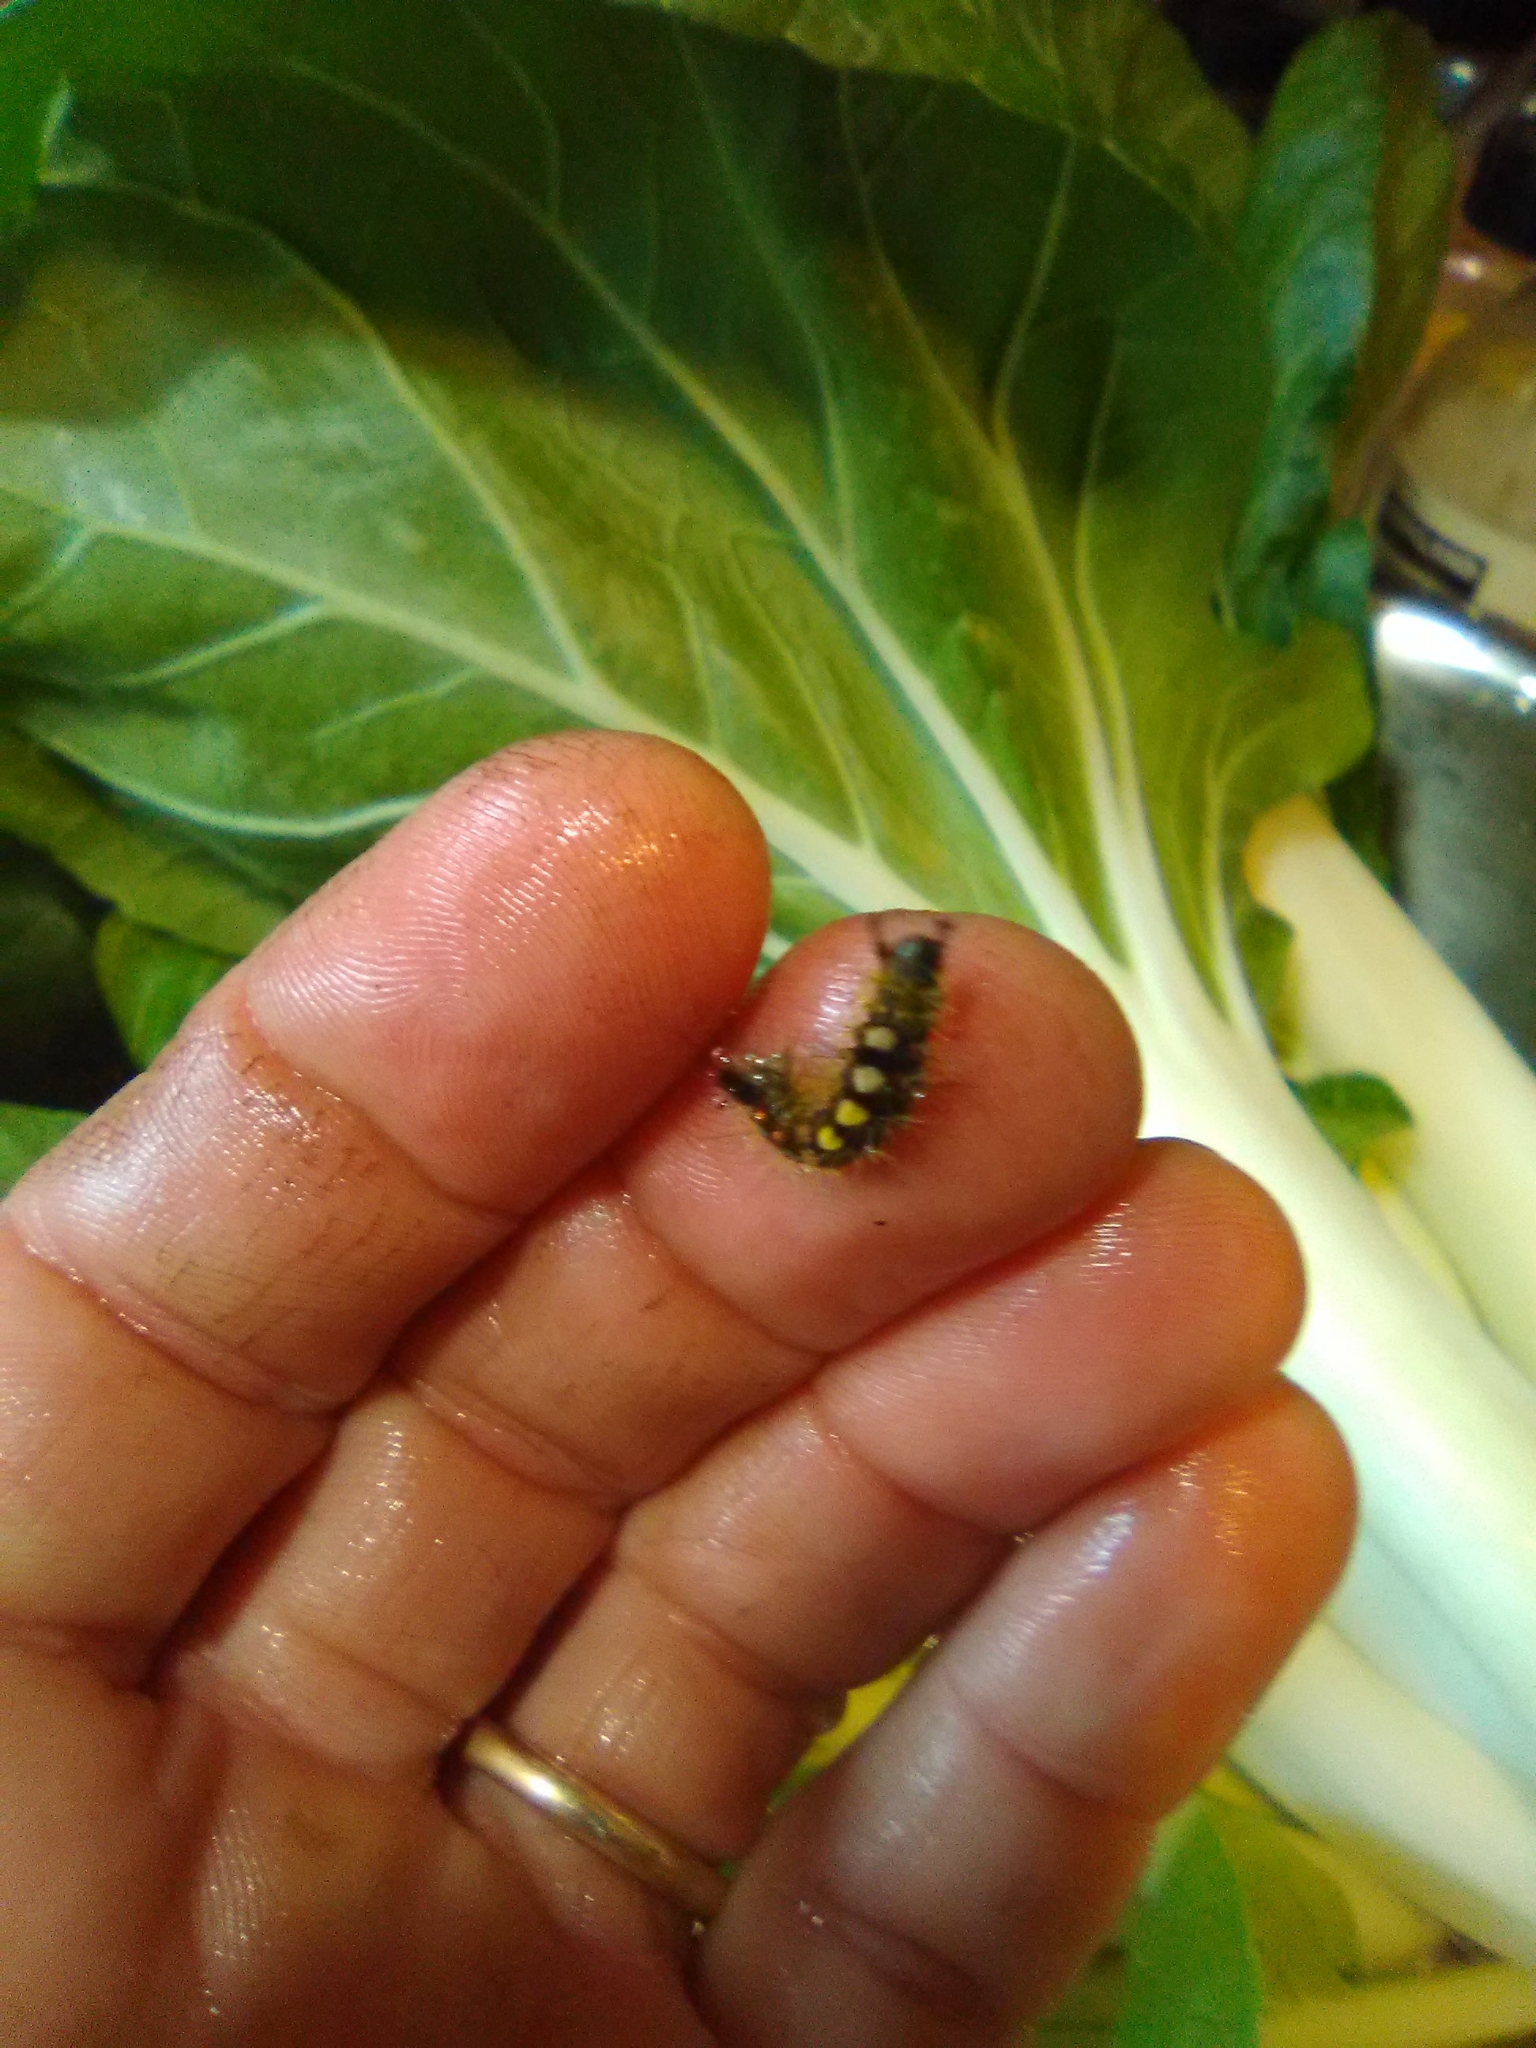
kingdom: Animalia
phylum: Arthropoda
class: Insecta
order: Lepidoptera
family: Erebidae
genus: Orgyia
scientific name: Orgyia antiqua
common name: Vapourer
